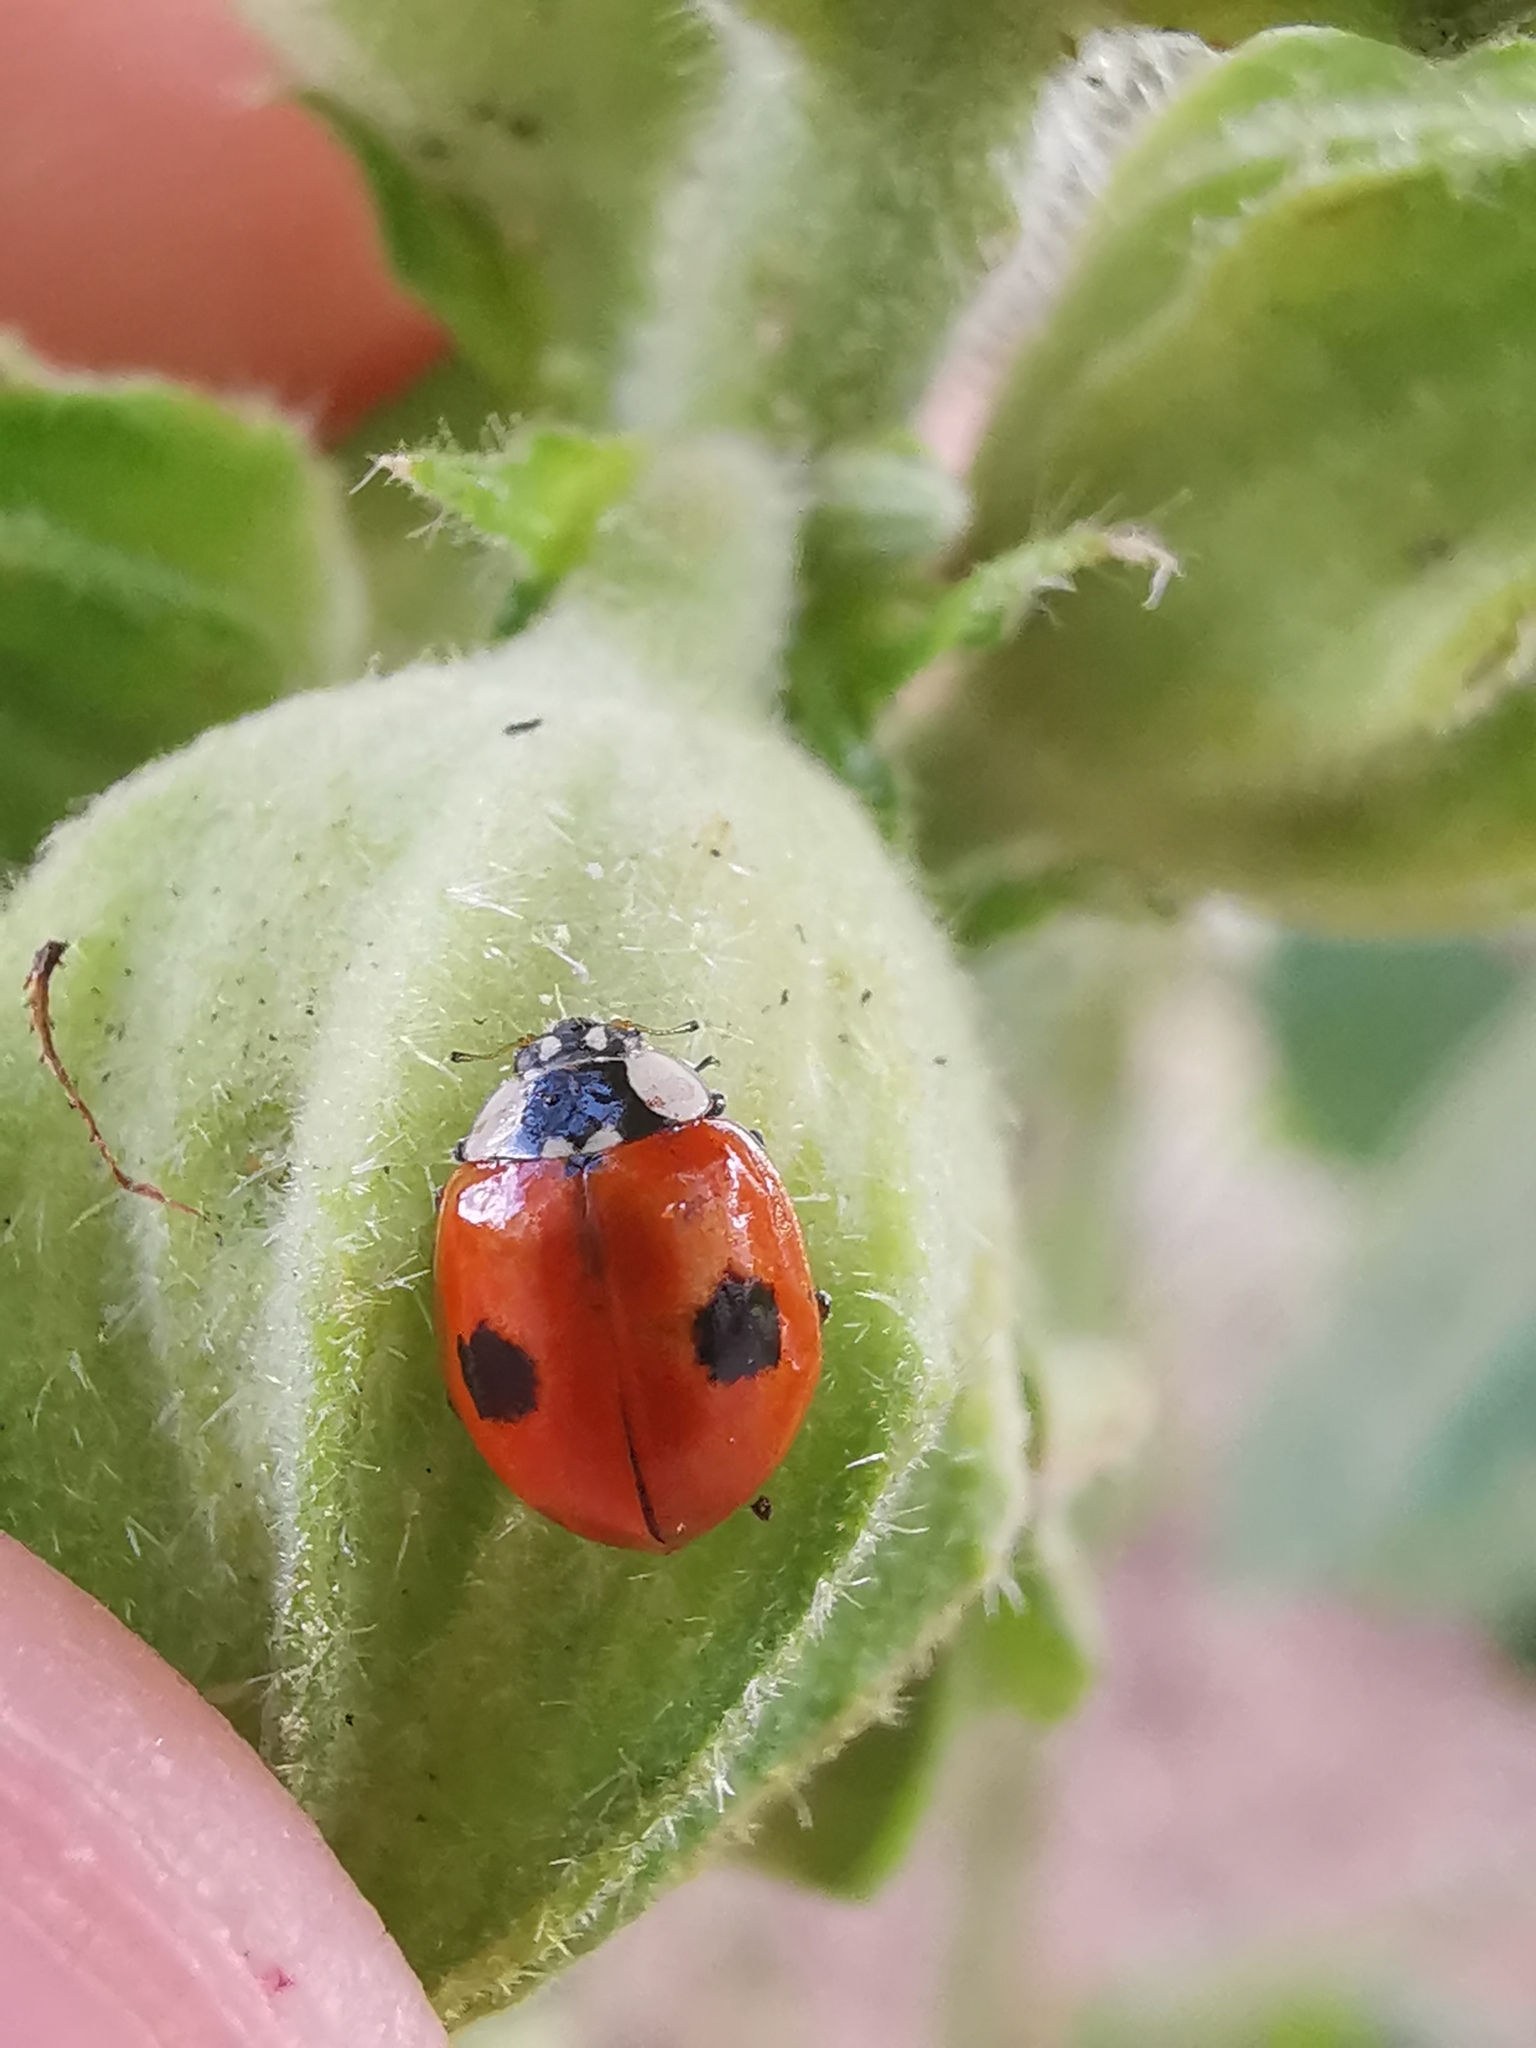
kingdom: Animalia
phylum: Arthropoda
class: Insecta
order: Coleoptera
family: Coccinellidae
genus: Adalia
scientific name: Adalia bipunctata
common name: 2-spot ladybird
